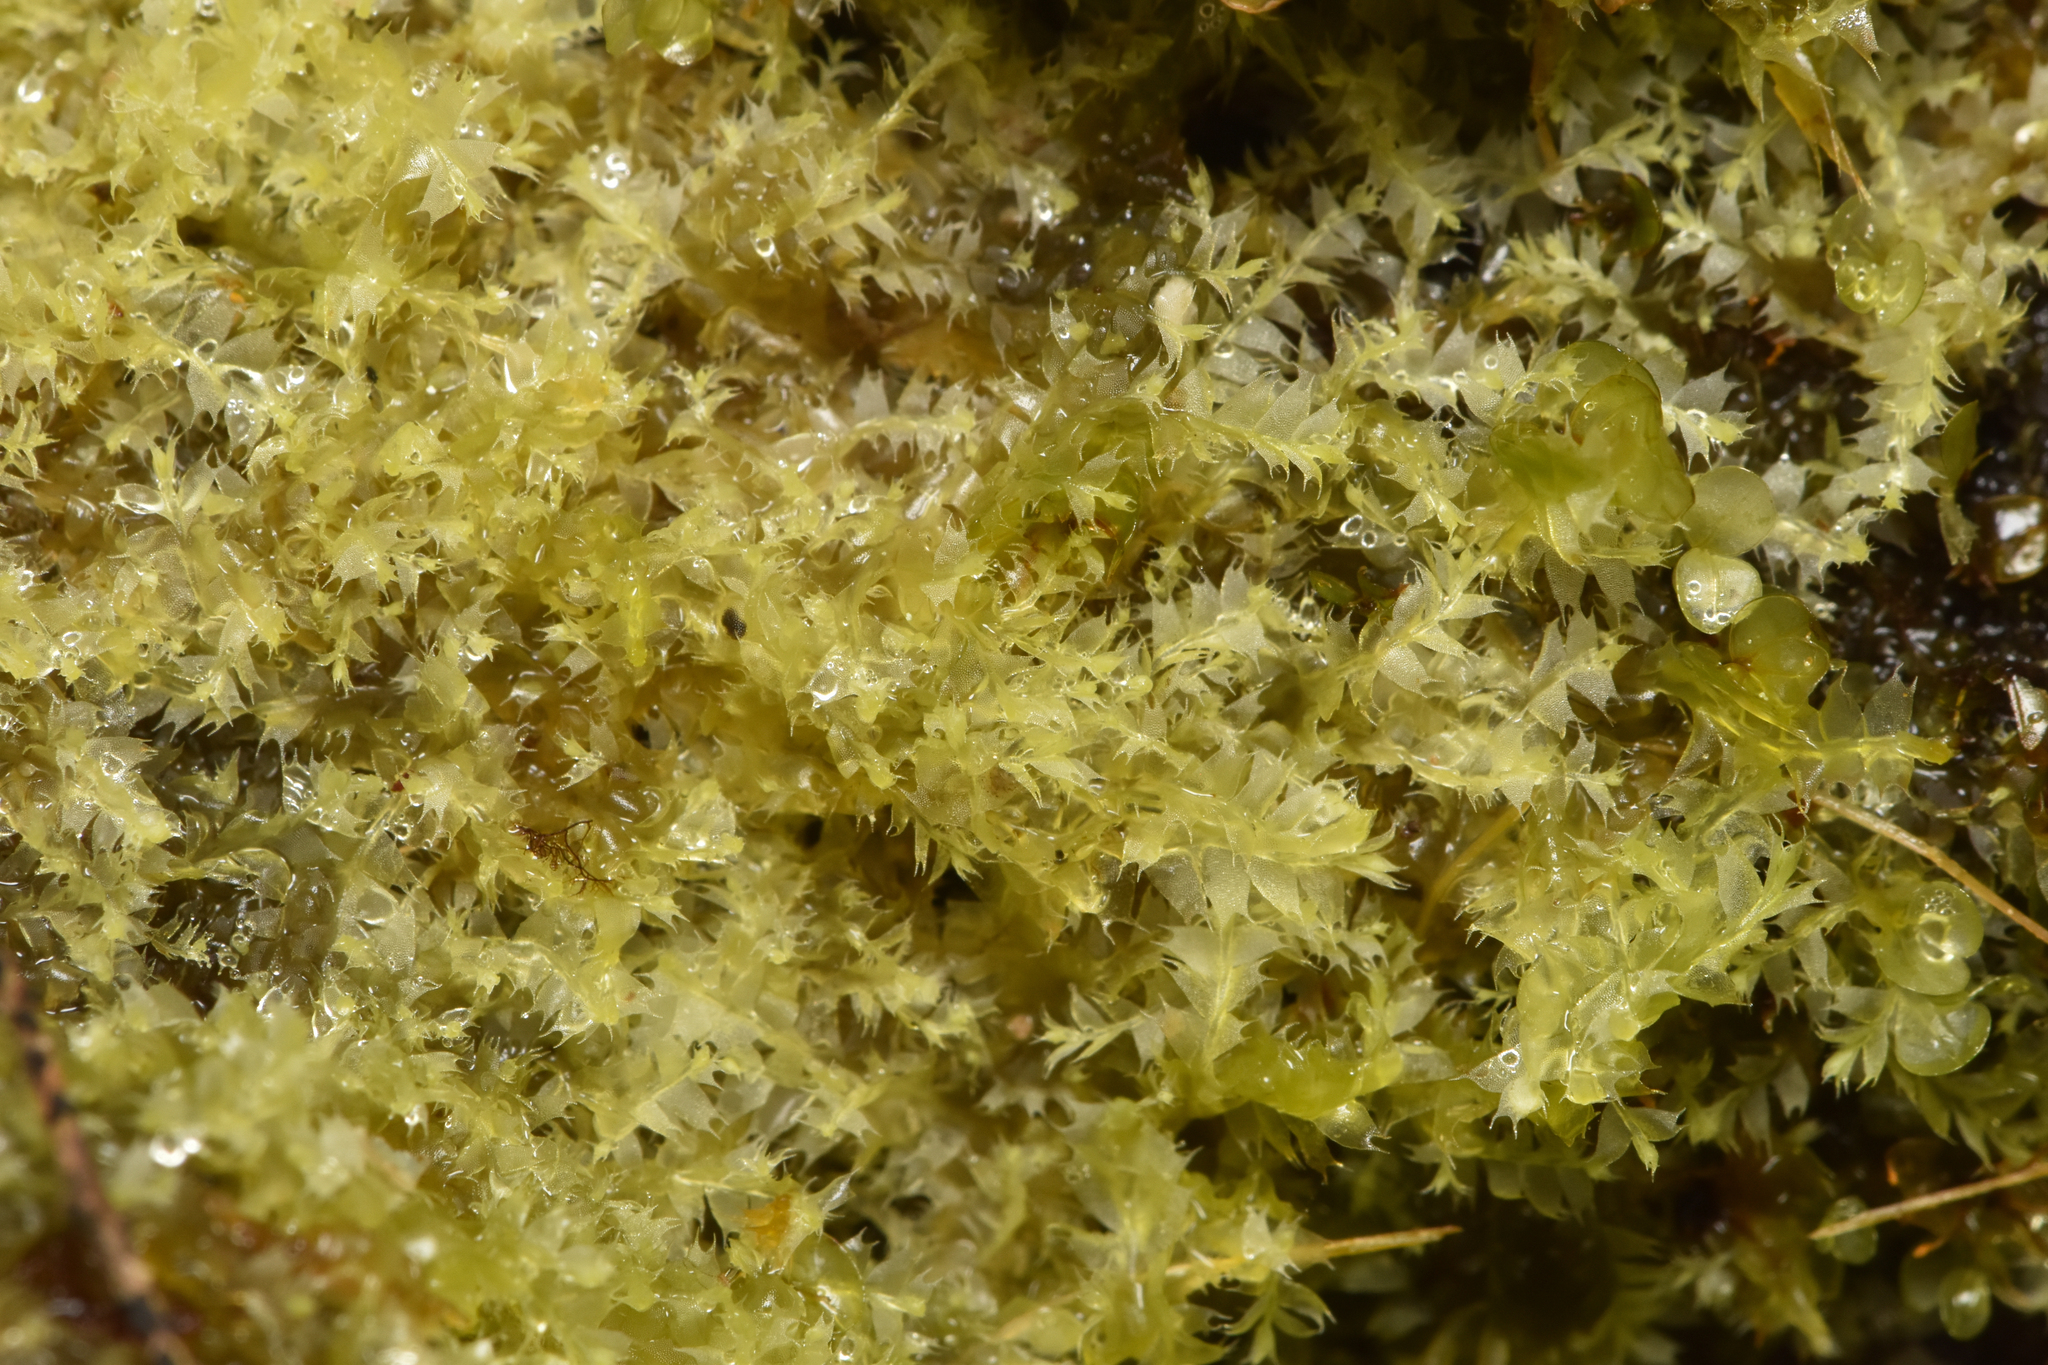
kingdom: Plantae
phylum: Marchantiophyta
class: Jungermanniopsida
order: Jungermanniales
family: Lophocoleaceae
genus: Lophocolea
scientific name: Lophocolea bidentata
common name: Bifid crestwort
